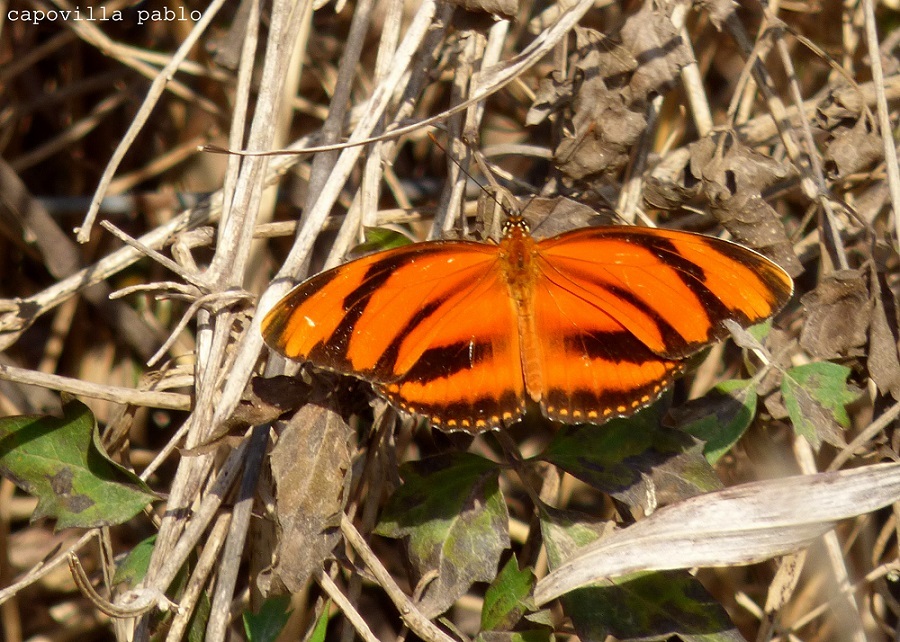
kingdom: Animalia
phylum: Arthropoda
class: Insecta
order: Lepidoptera
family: Nymphalidae
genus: Dryadula
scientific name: Dryadula phaetusa
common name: Banded orange heliconian
